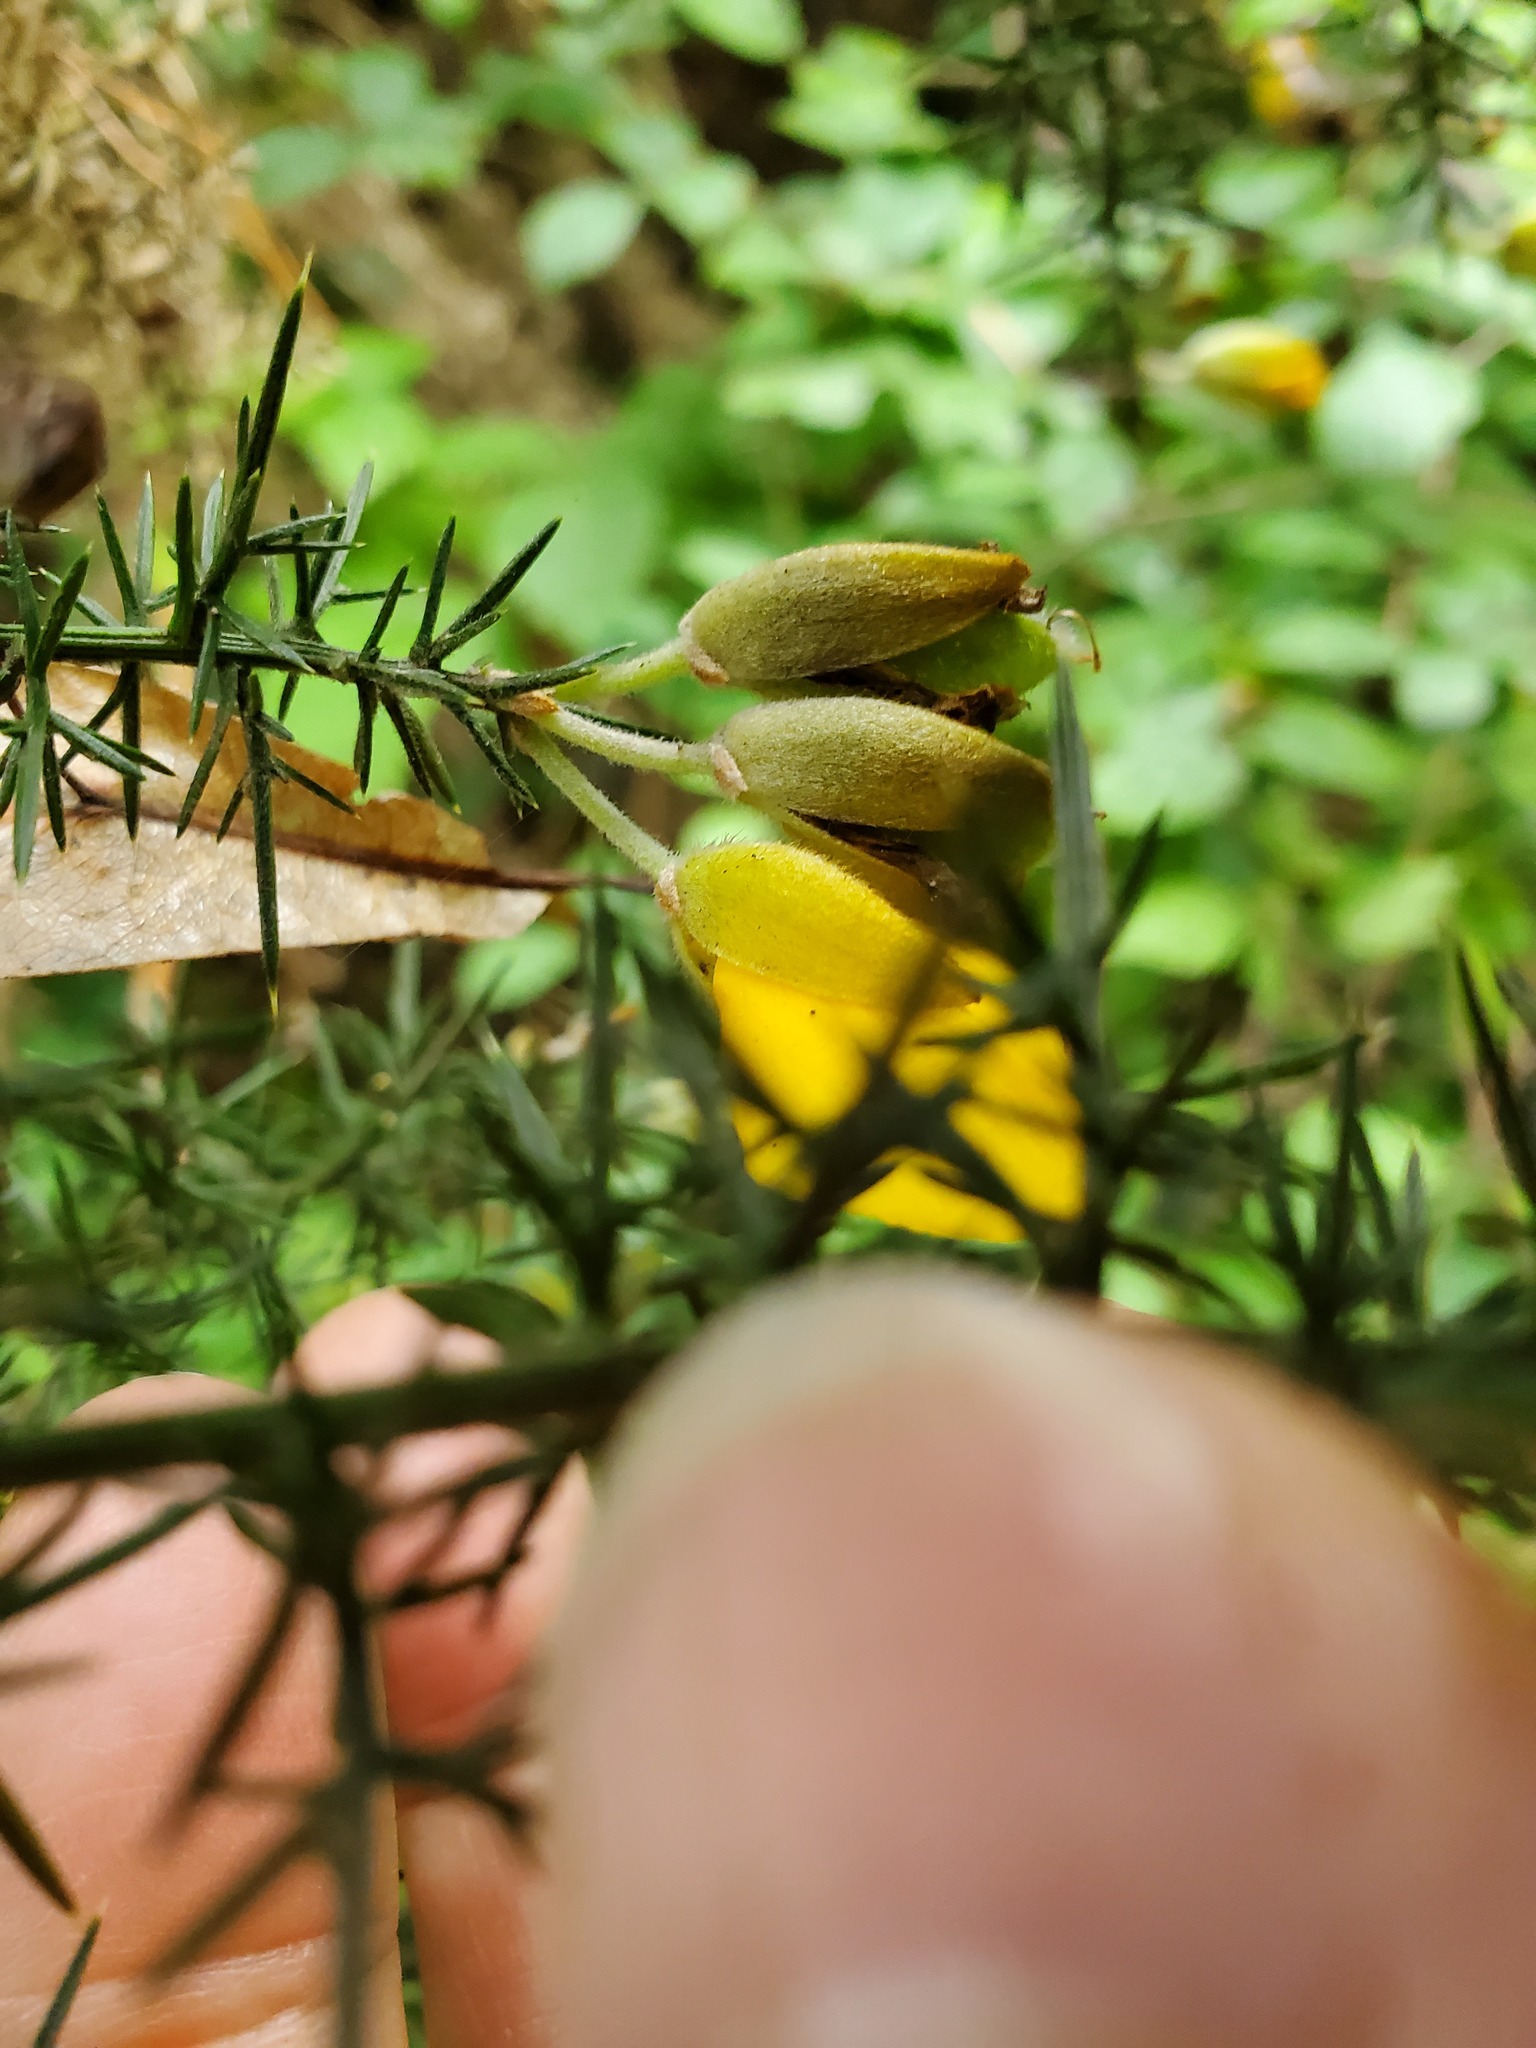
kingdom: Plantae
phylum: Tracheophyta
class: Magnoliopsida
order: Fabales
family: Fabaceae
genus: Ulex
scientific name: Ulex europaeus
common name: Common gorse
